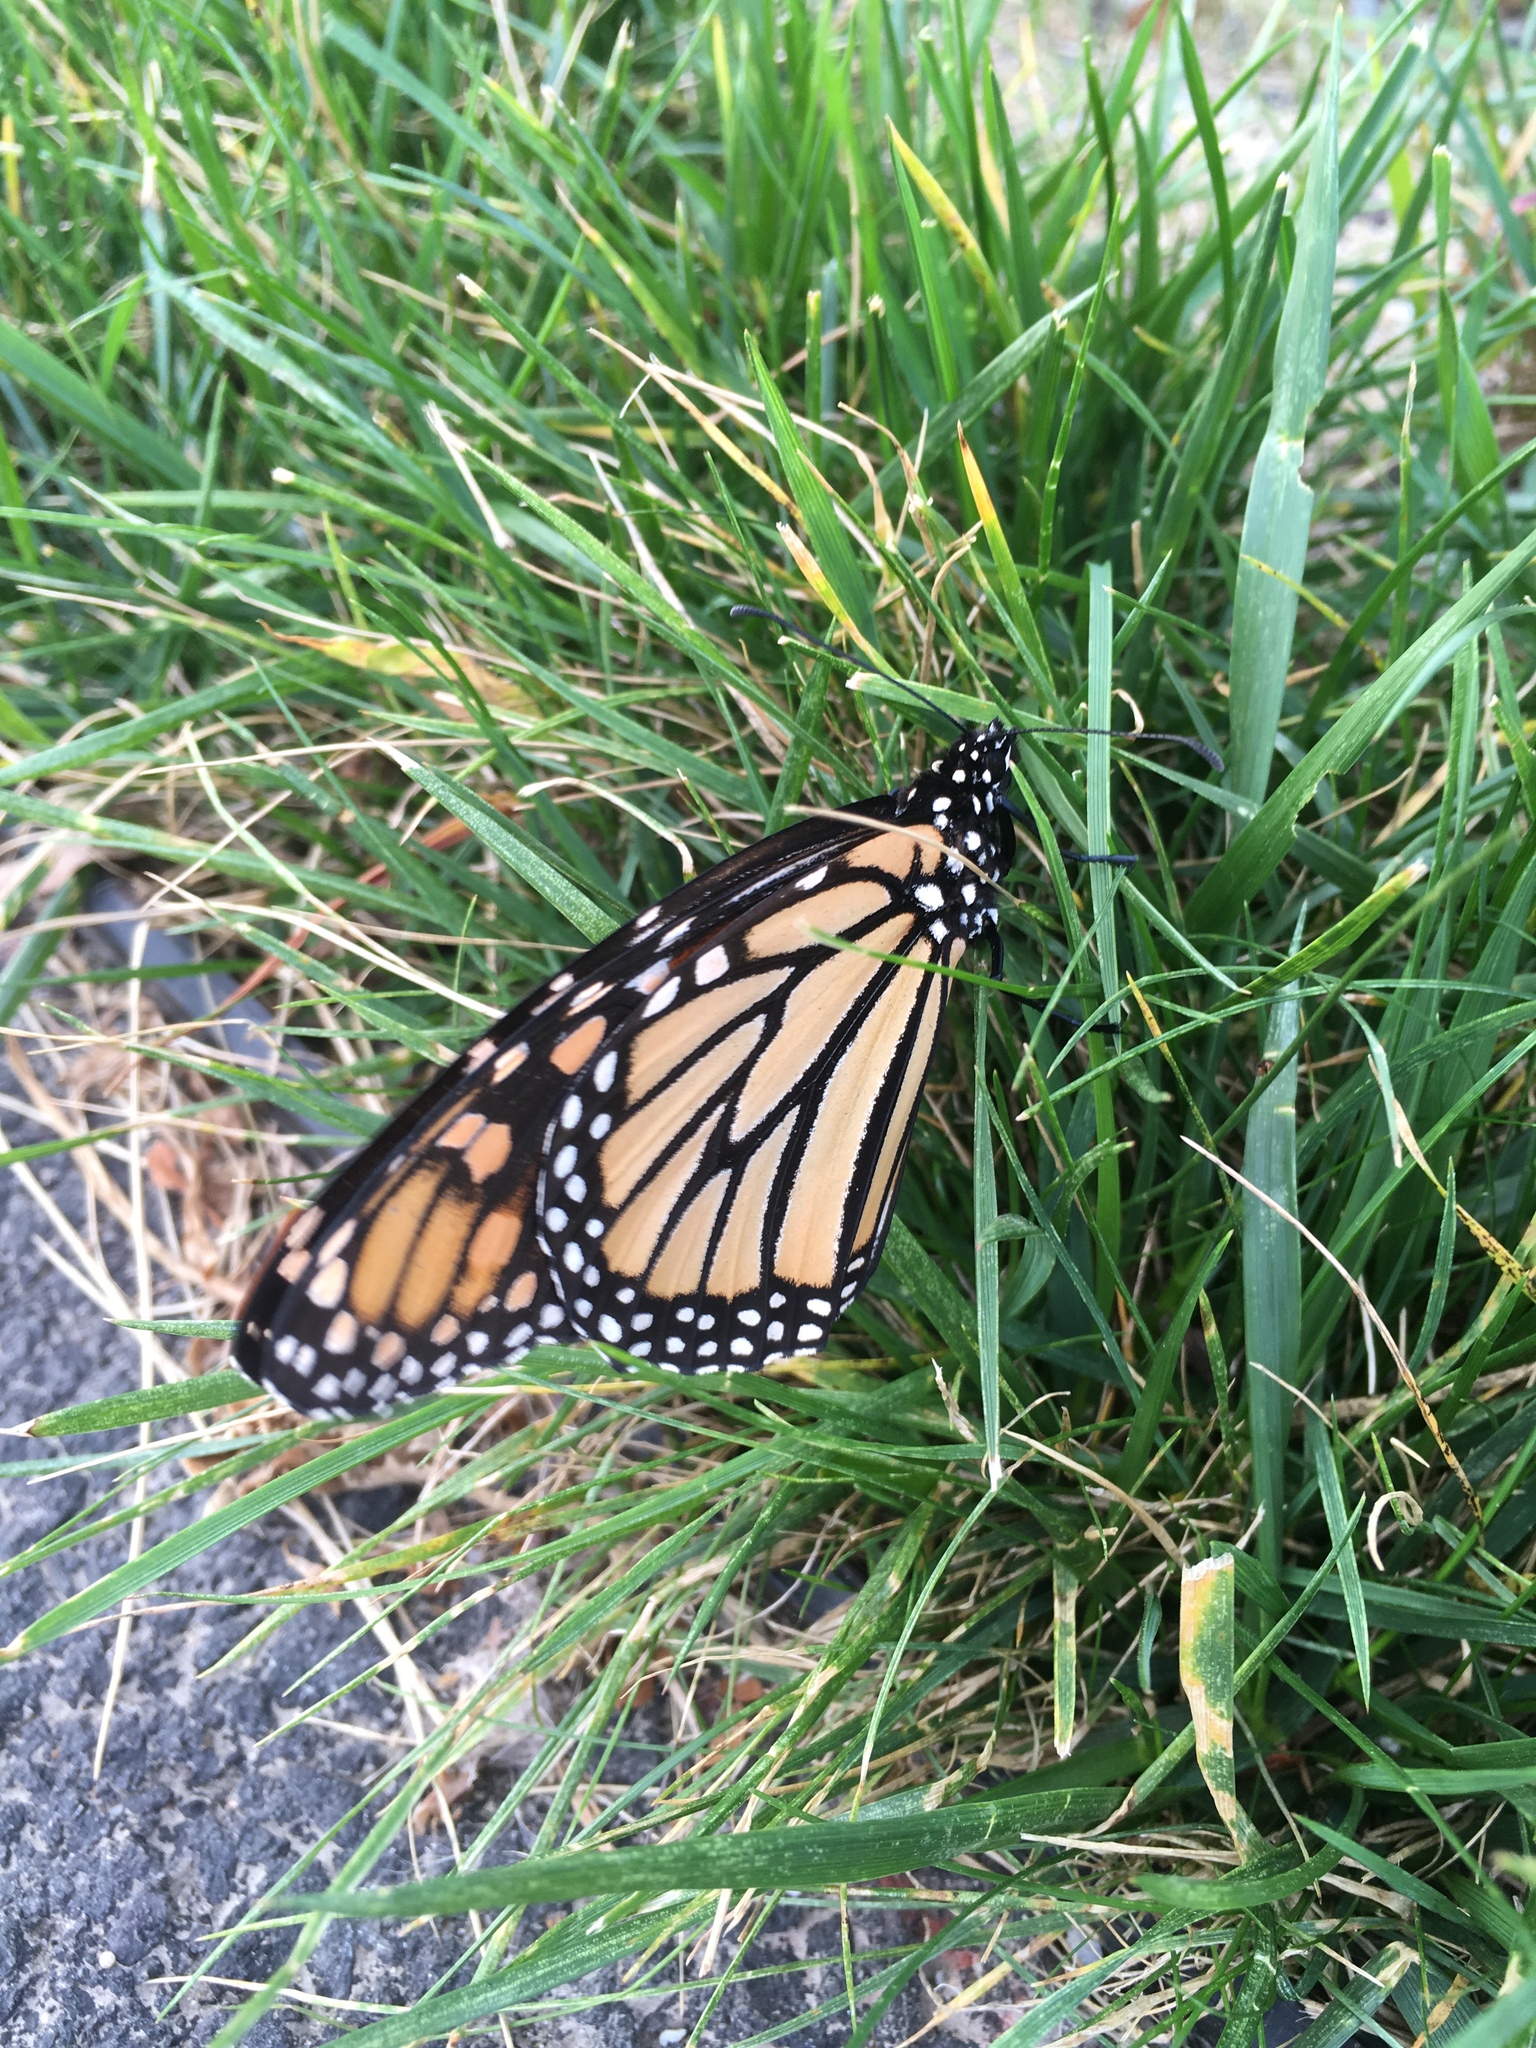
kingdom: Animalia
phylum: Arthropoda
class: Insecta
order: Lepidoptera
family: Nymphalidae
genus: Danaus
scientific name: Danaus plexippus
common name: Monarch
